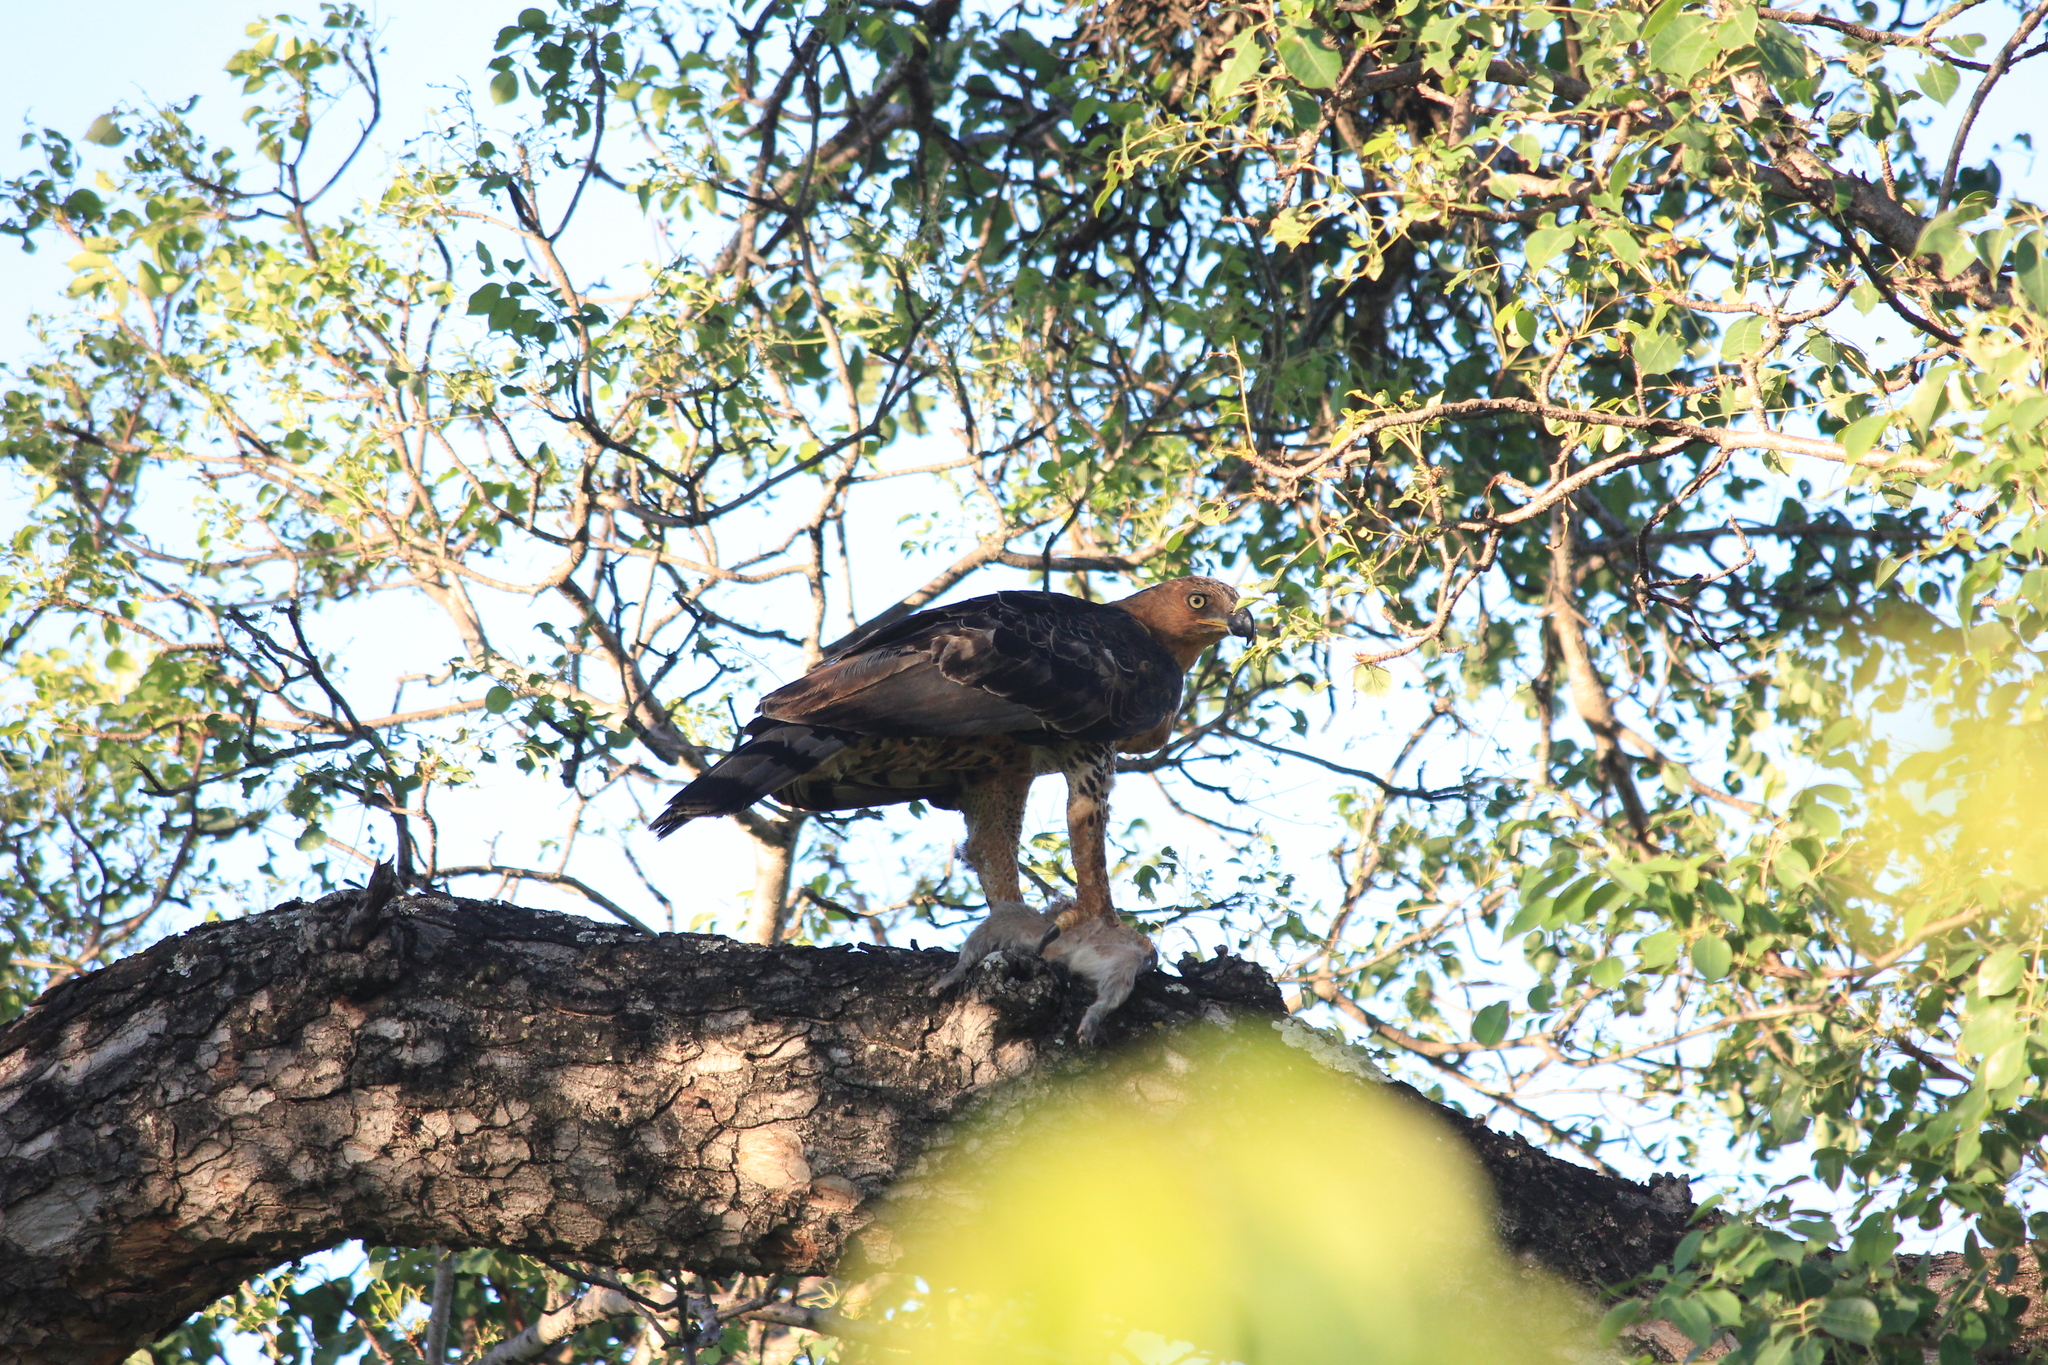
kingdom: Animalia
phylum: Chordata
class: Aves
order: Accipitriformes
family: Accipitridae
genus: Stephanoaetus
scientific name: Stephanoaetus coronatus
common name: Crowned eagle
